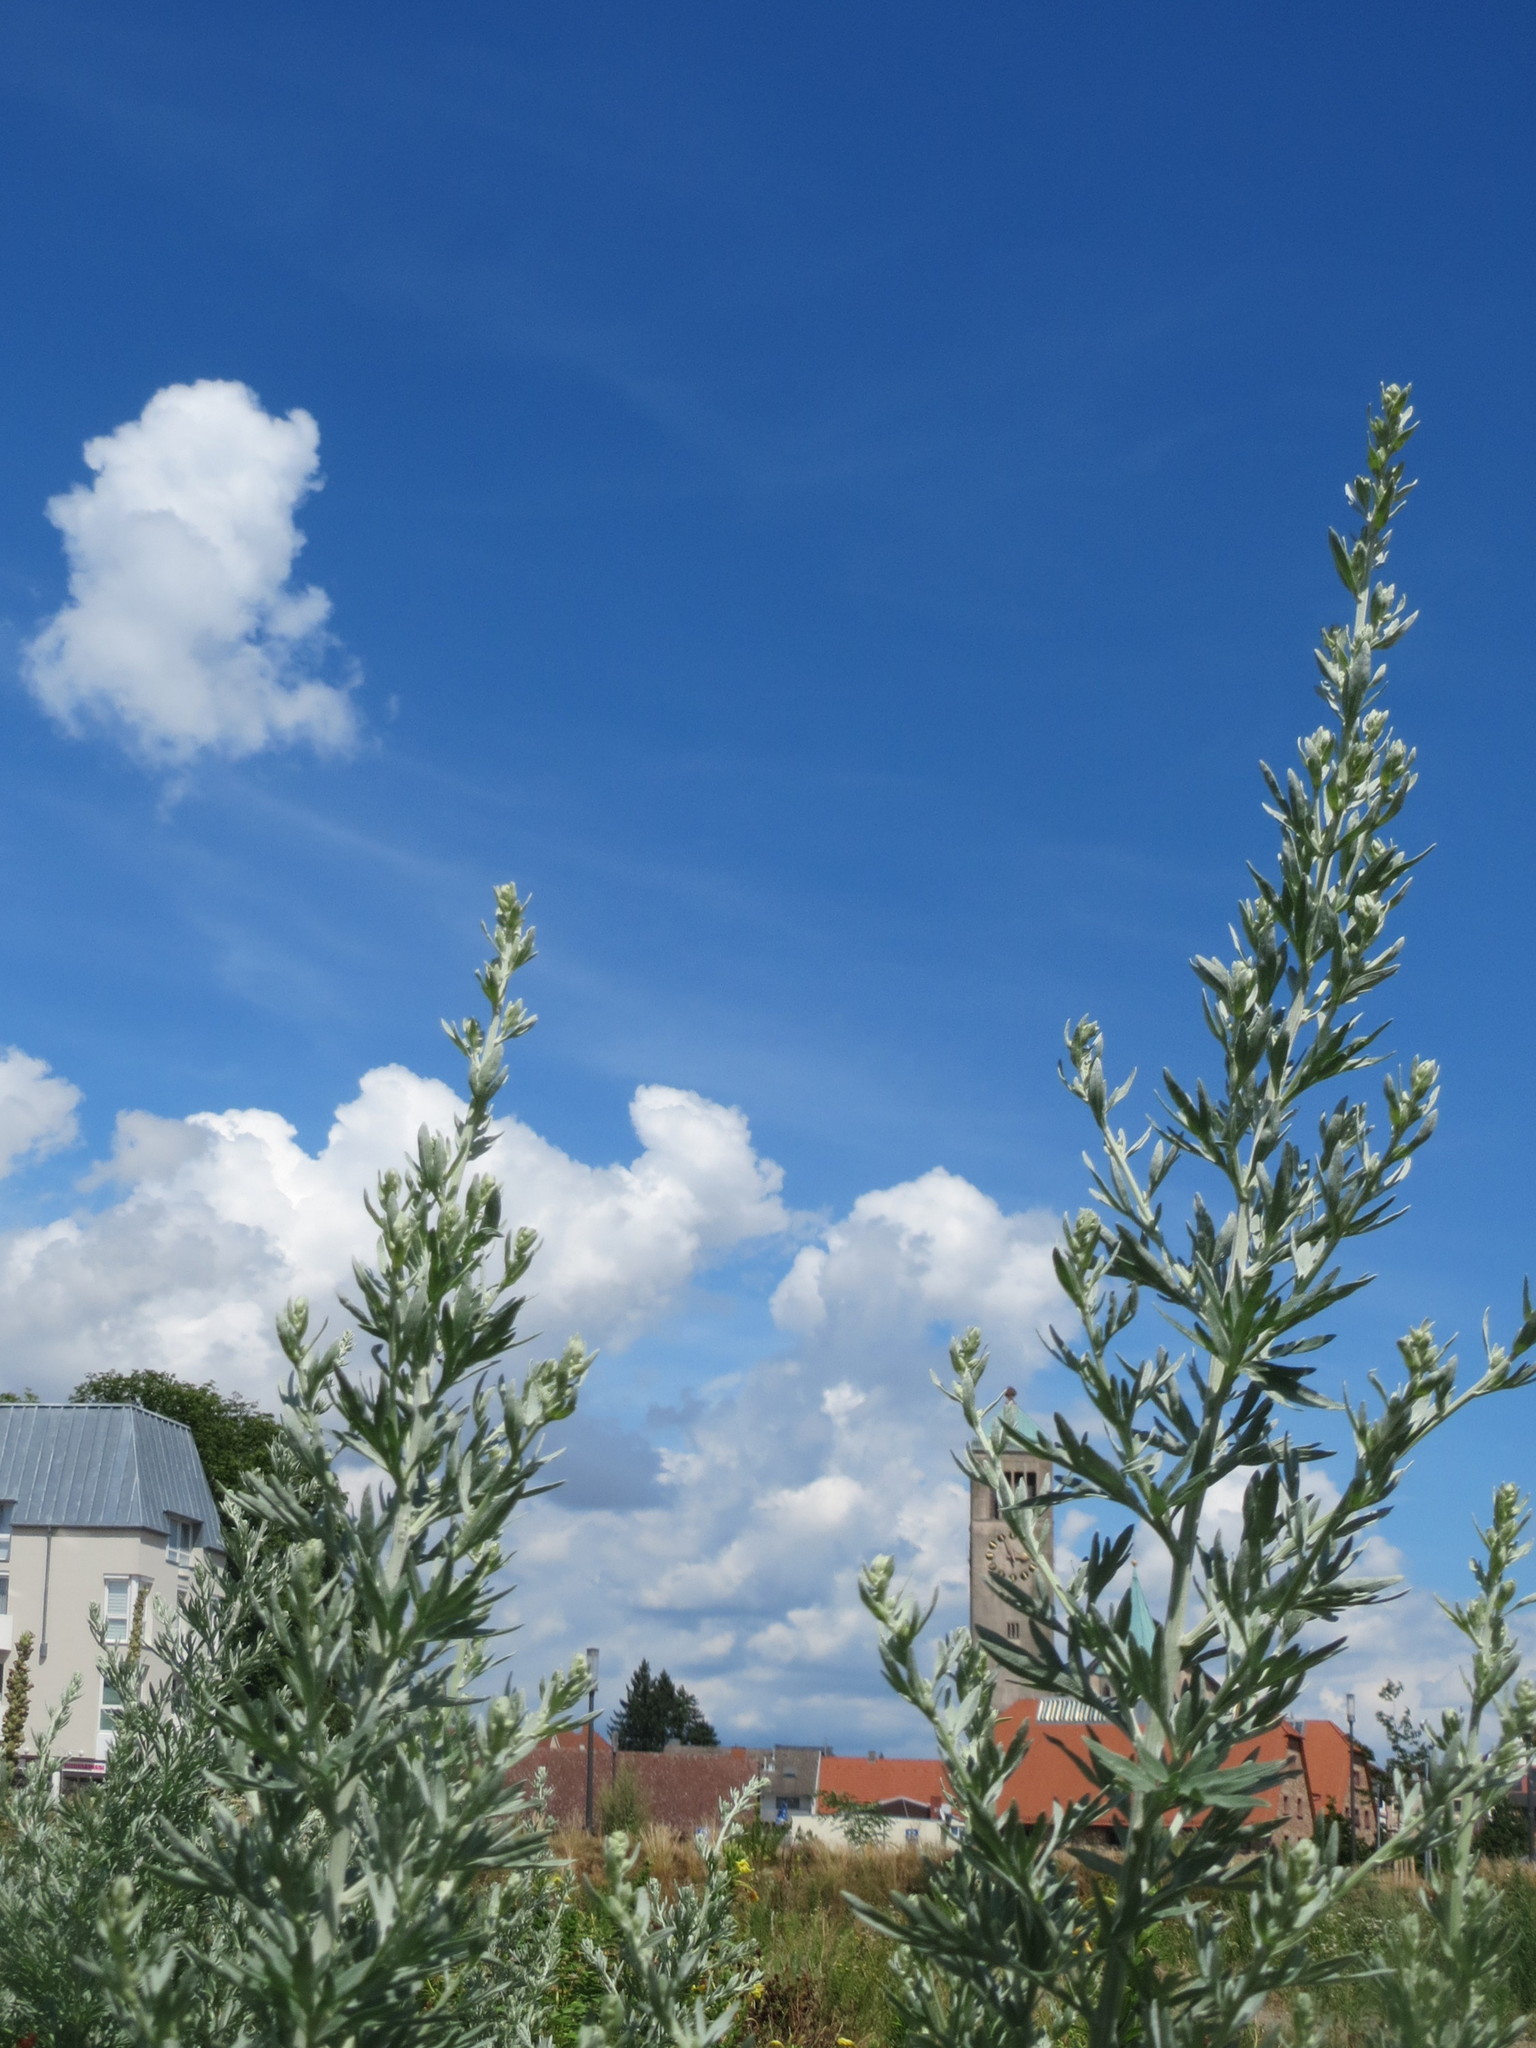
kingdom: Plantae
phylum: Tracheophyta
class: Magnoliopsida
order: Asterales
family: Asteraceae
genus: Artemisia
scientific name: Artemisia absinthium
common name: Wormwood
